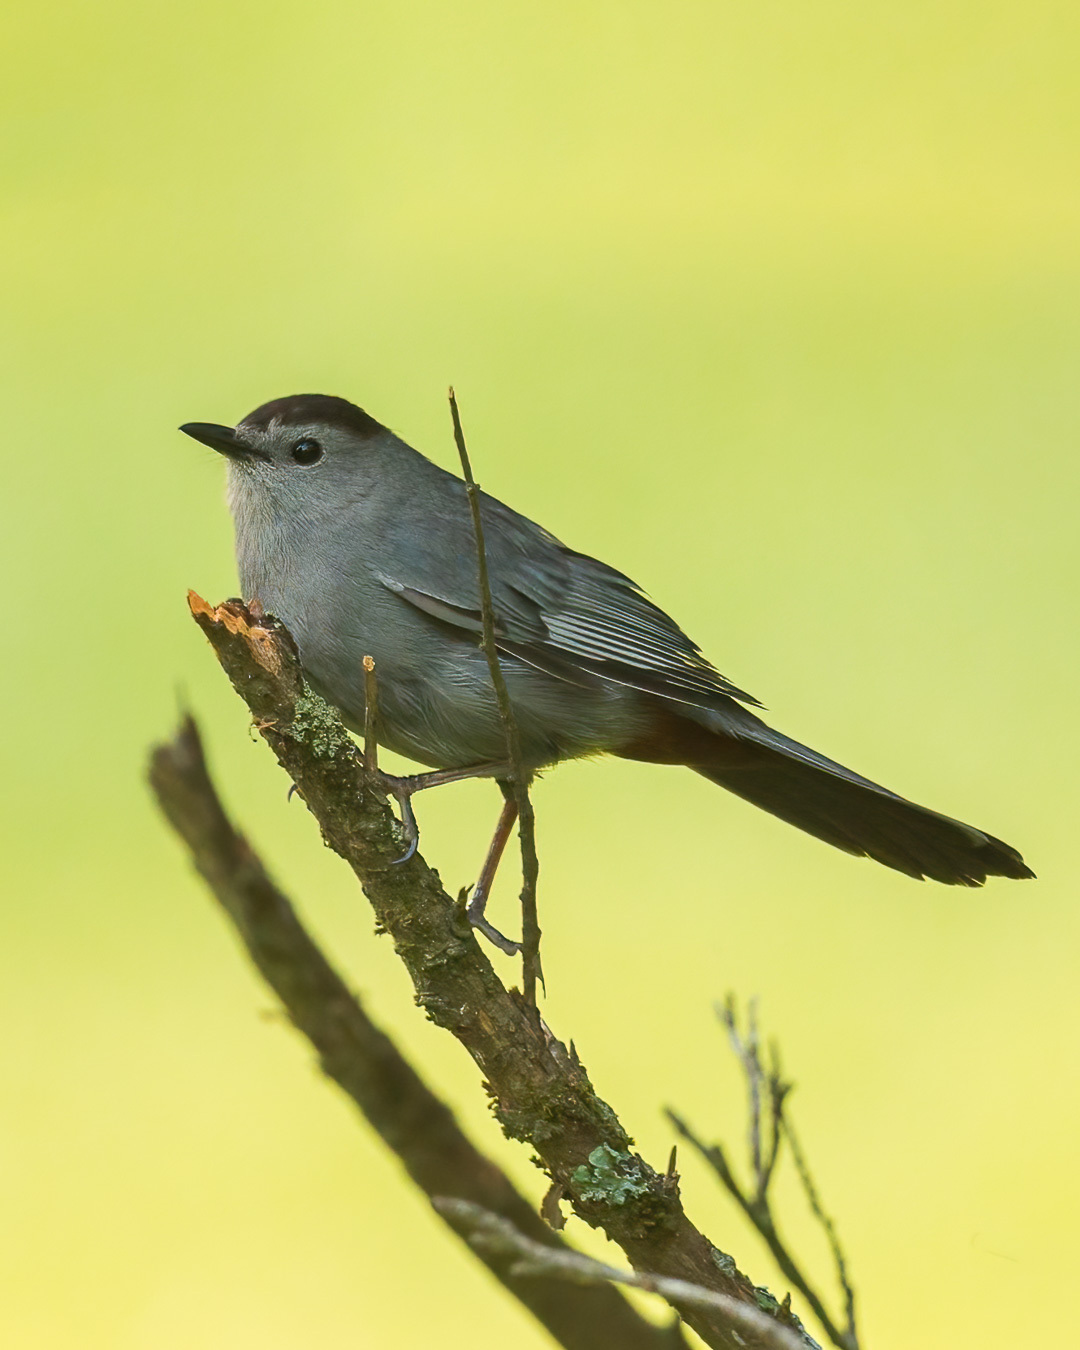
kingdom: Animalia
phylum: Chordata
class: Aves
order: Passeriformes
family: Mimidae
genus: Dumetella
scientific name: Dumetella carolinensis
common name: Gray catbird
